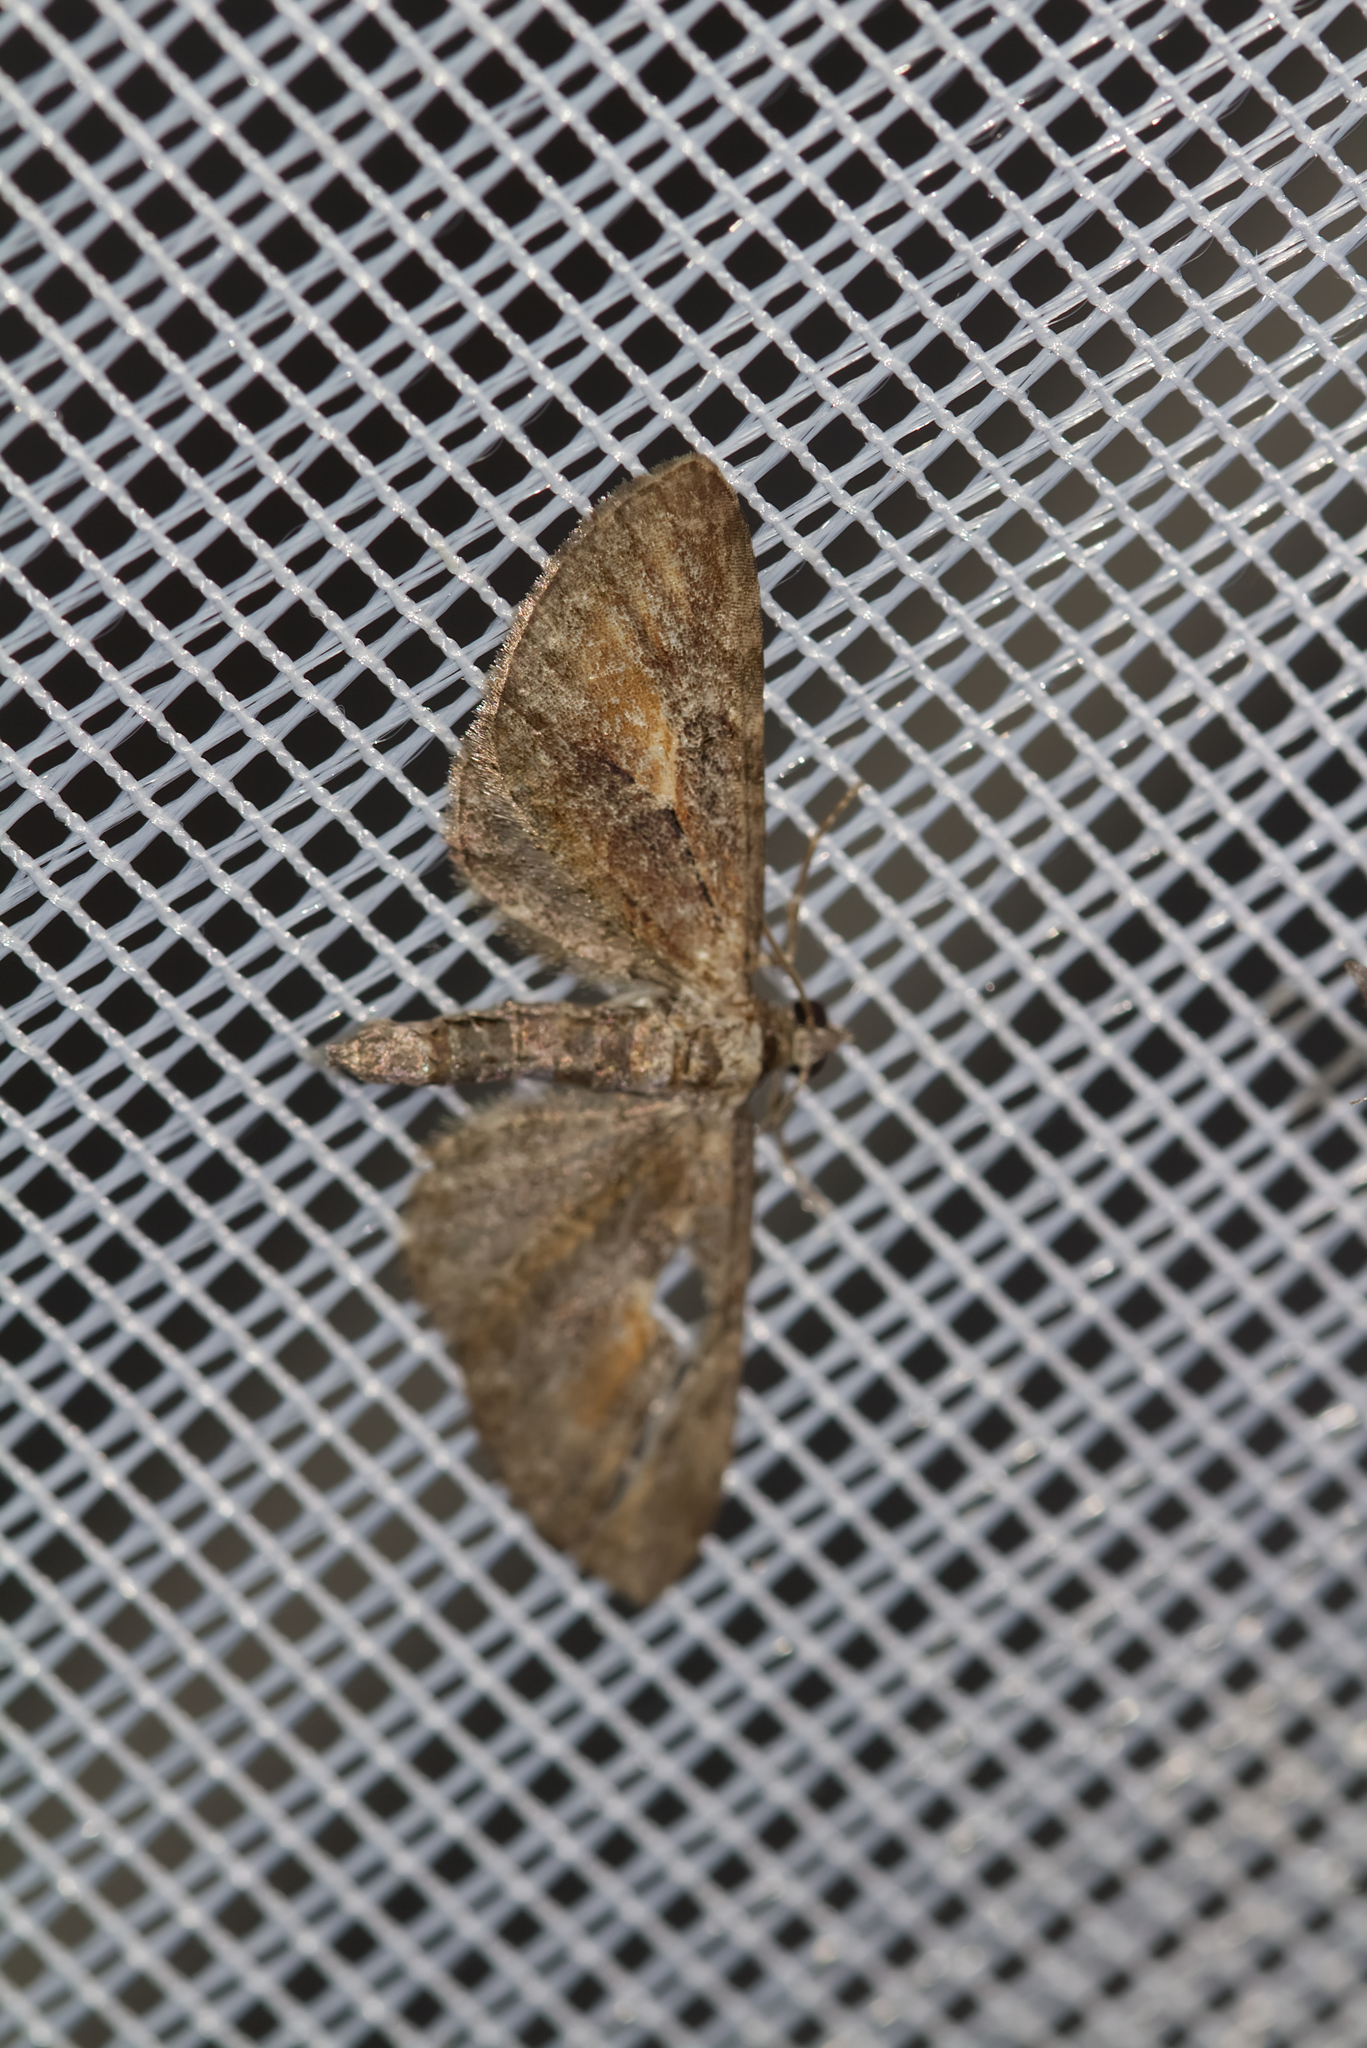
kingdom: Animalia
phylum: Arthropoda
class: Insecta
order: Lepidoptera
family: Geometridae
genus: Eupithecia
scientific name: Eupithecia icterata
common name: Tawny speckled pug
